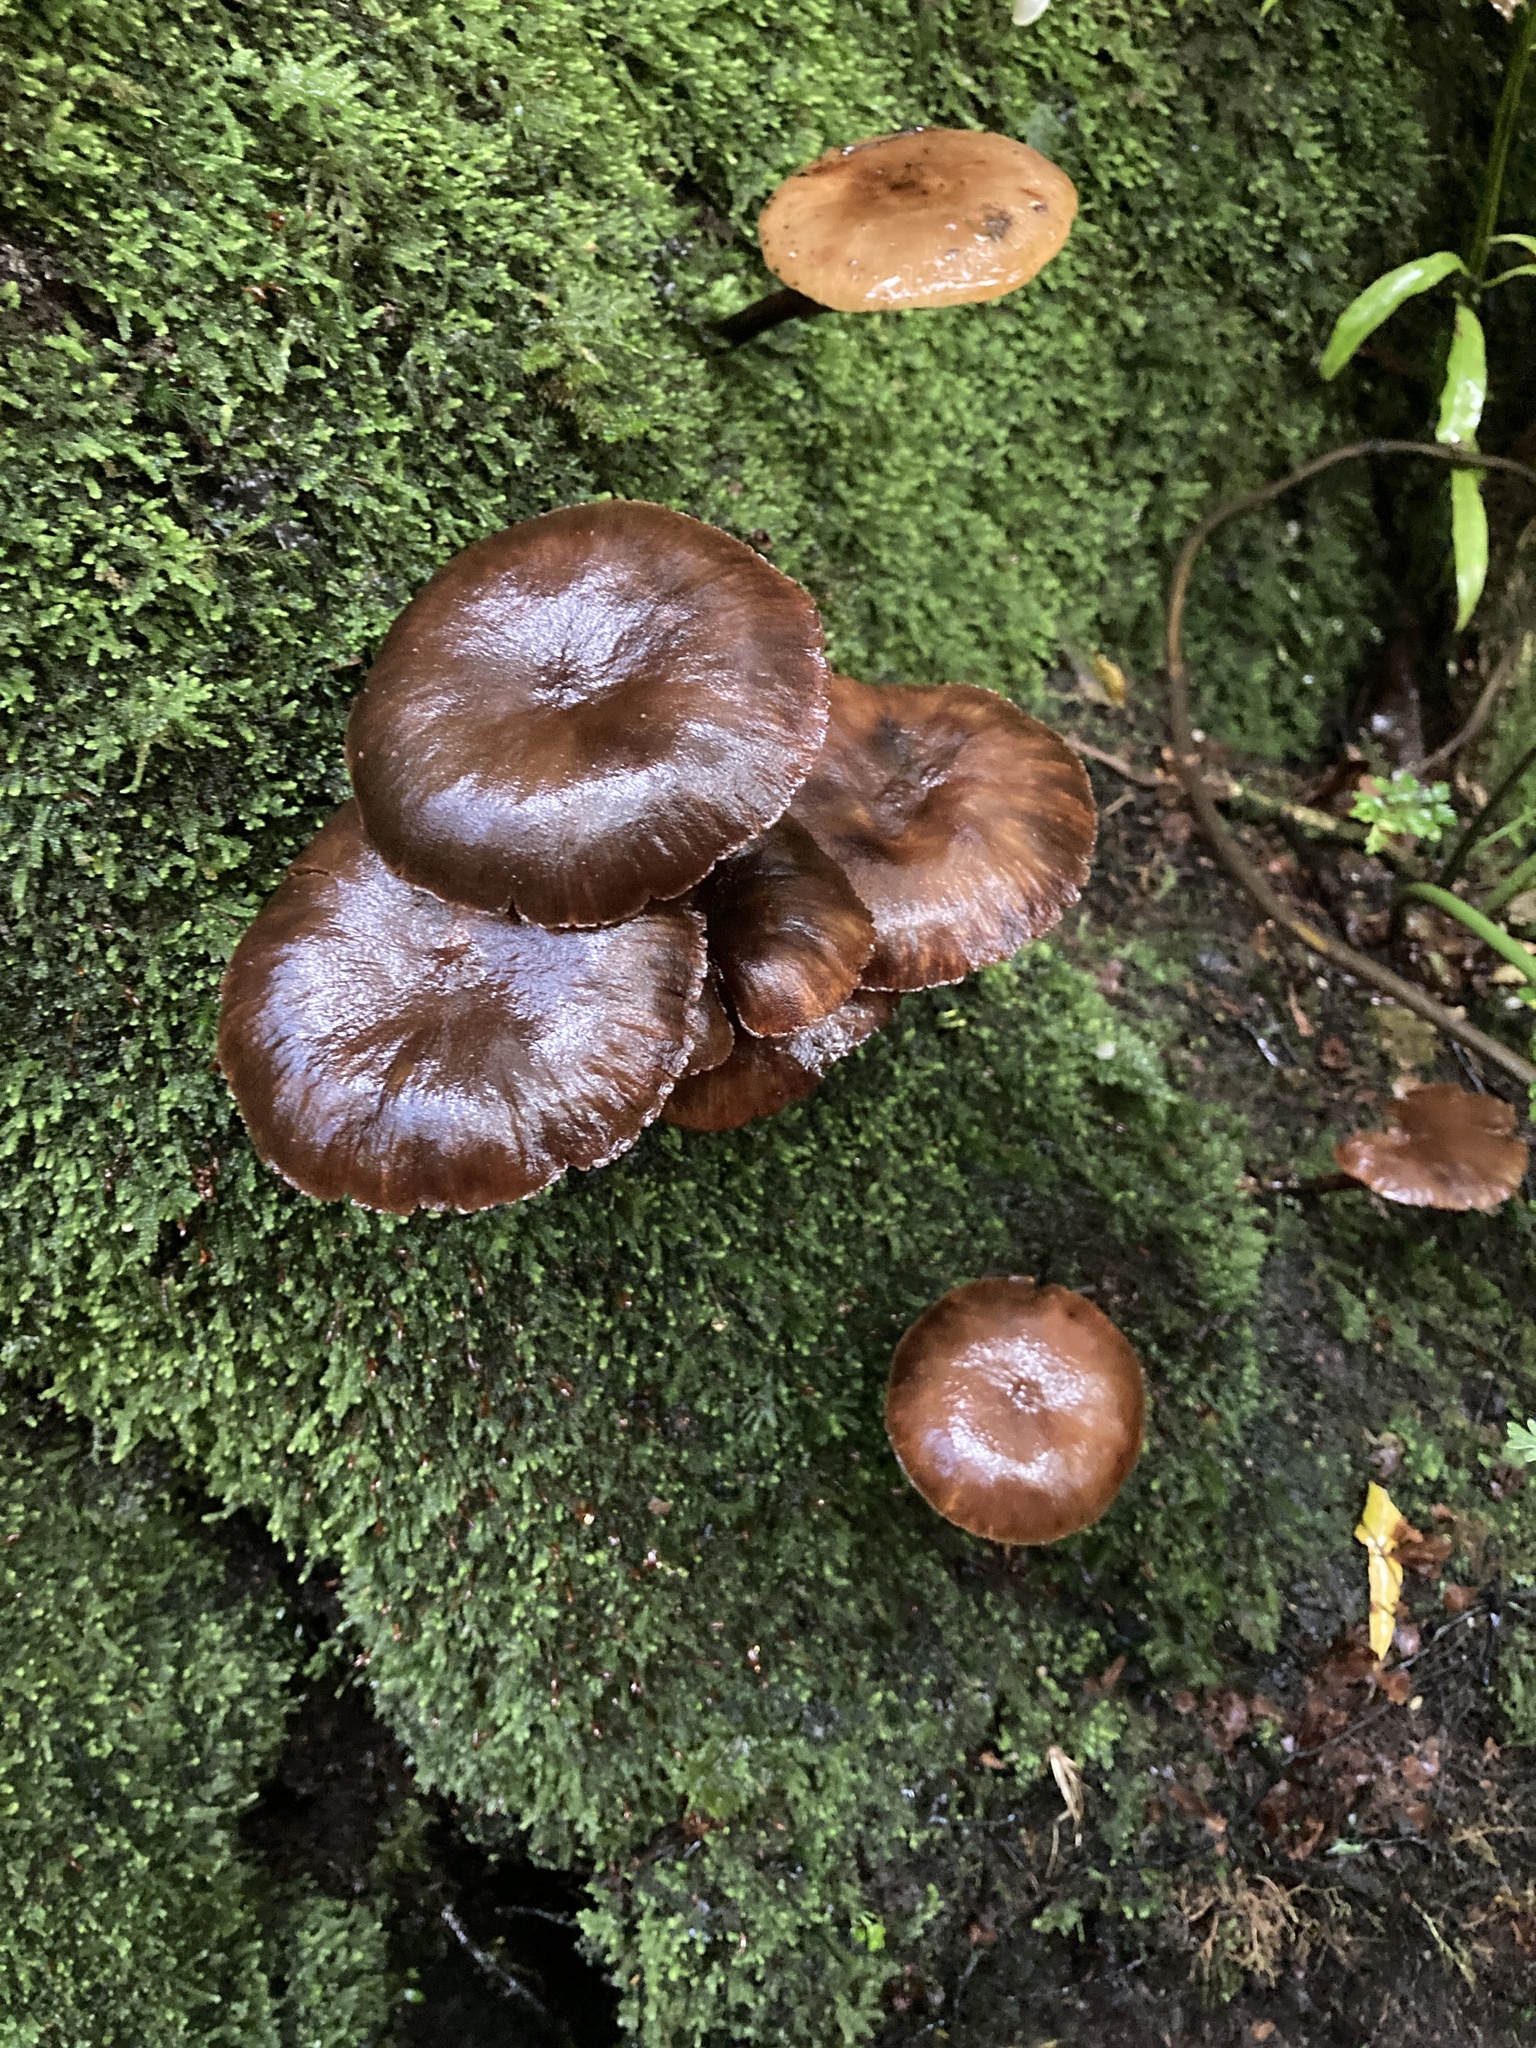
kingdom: Fungi
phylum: Basidiomycota
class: Agaricomycetes
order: Agaricales
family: Hymenogastraceae
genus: Galerina
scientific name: Galerina patagonica
